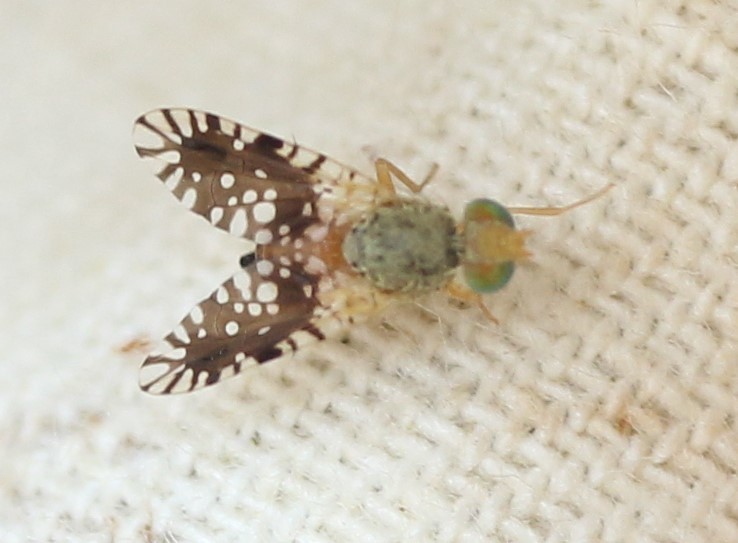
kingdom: Animalia
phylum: Arthropoda
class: Insecta
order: Diptera
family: Tephritidae
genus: Euaresta
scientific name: Euaresta bella
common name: Common ragweed fruit fly
